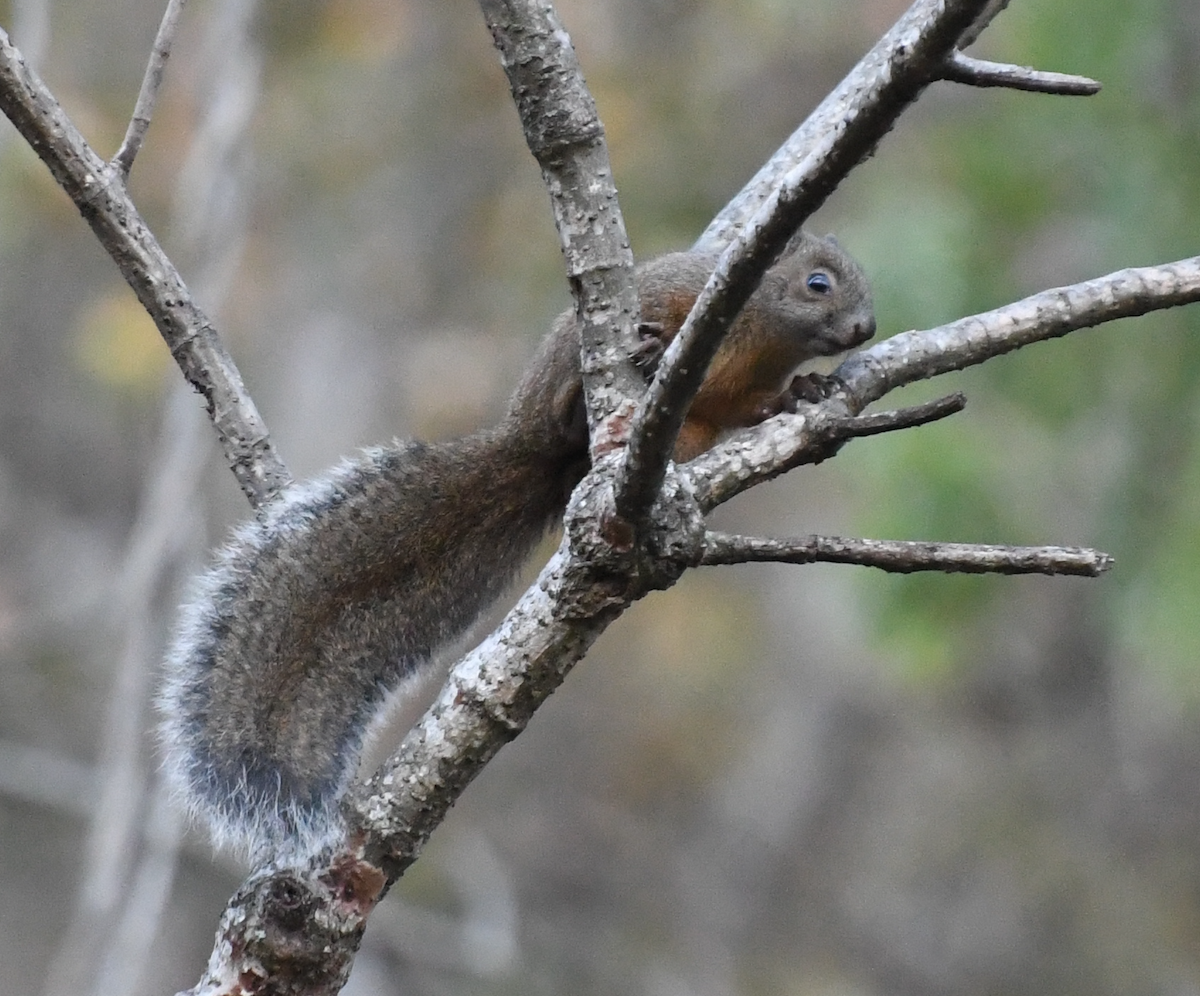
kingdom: Animalia
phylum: Chordata
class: Mammalia
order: Rodentia
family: Sciuridae
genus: Sciurus
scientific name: Sciurus deppei
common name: Deppe's squirrel
